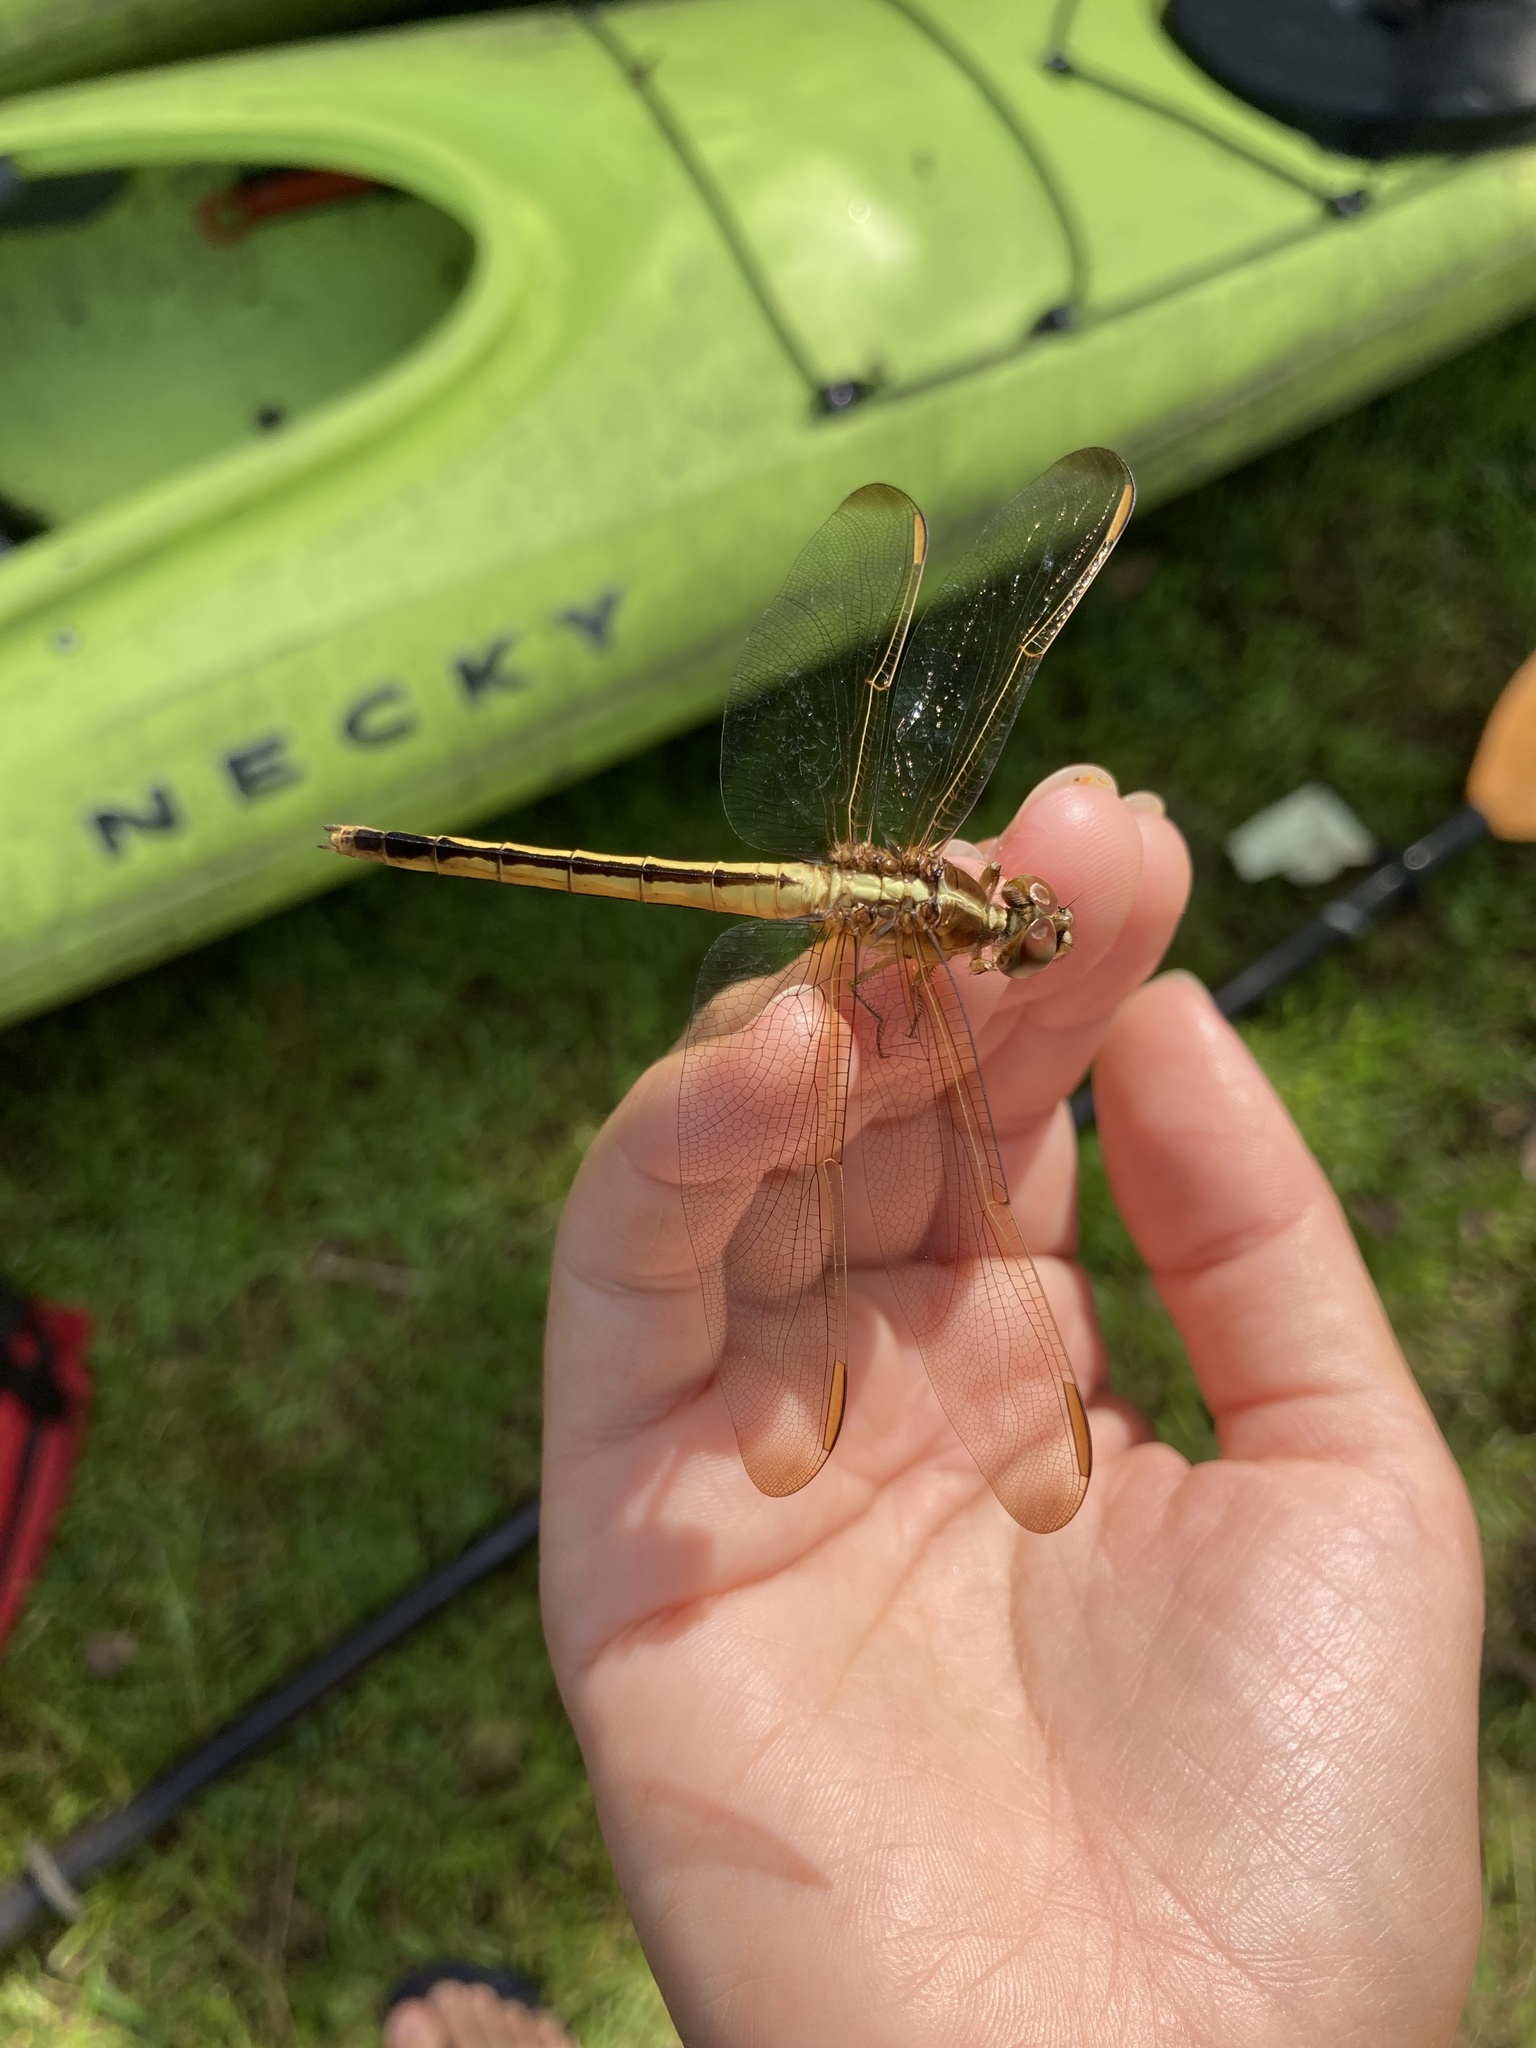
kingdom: Animalia
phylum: Arthropoda
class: Insecta
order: Odonata
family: Libellulidae
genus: Libellula
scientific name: Libellula needhami
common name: Needham's skimmer
